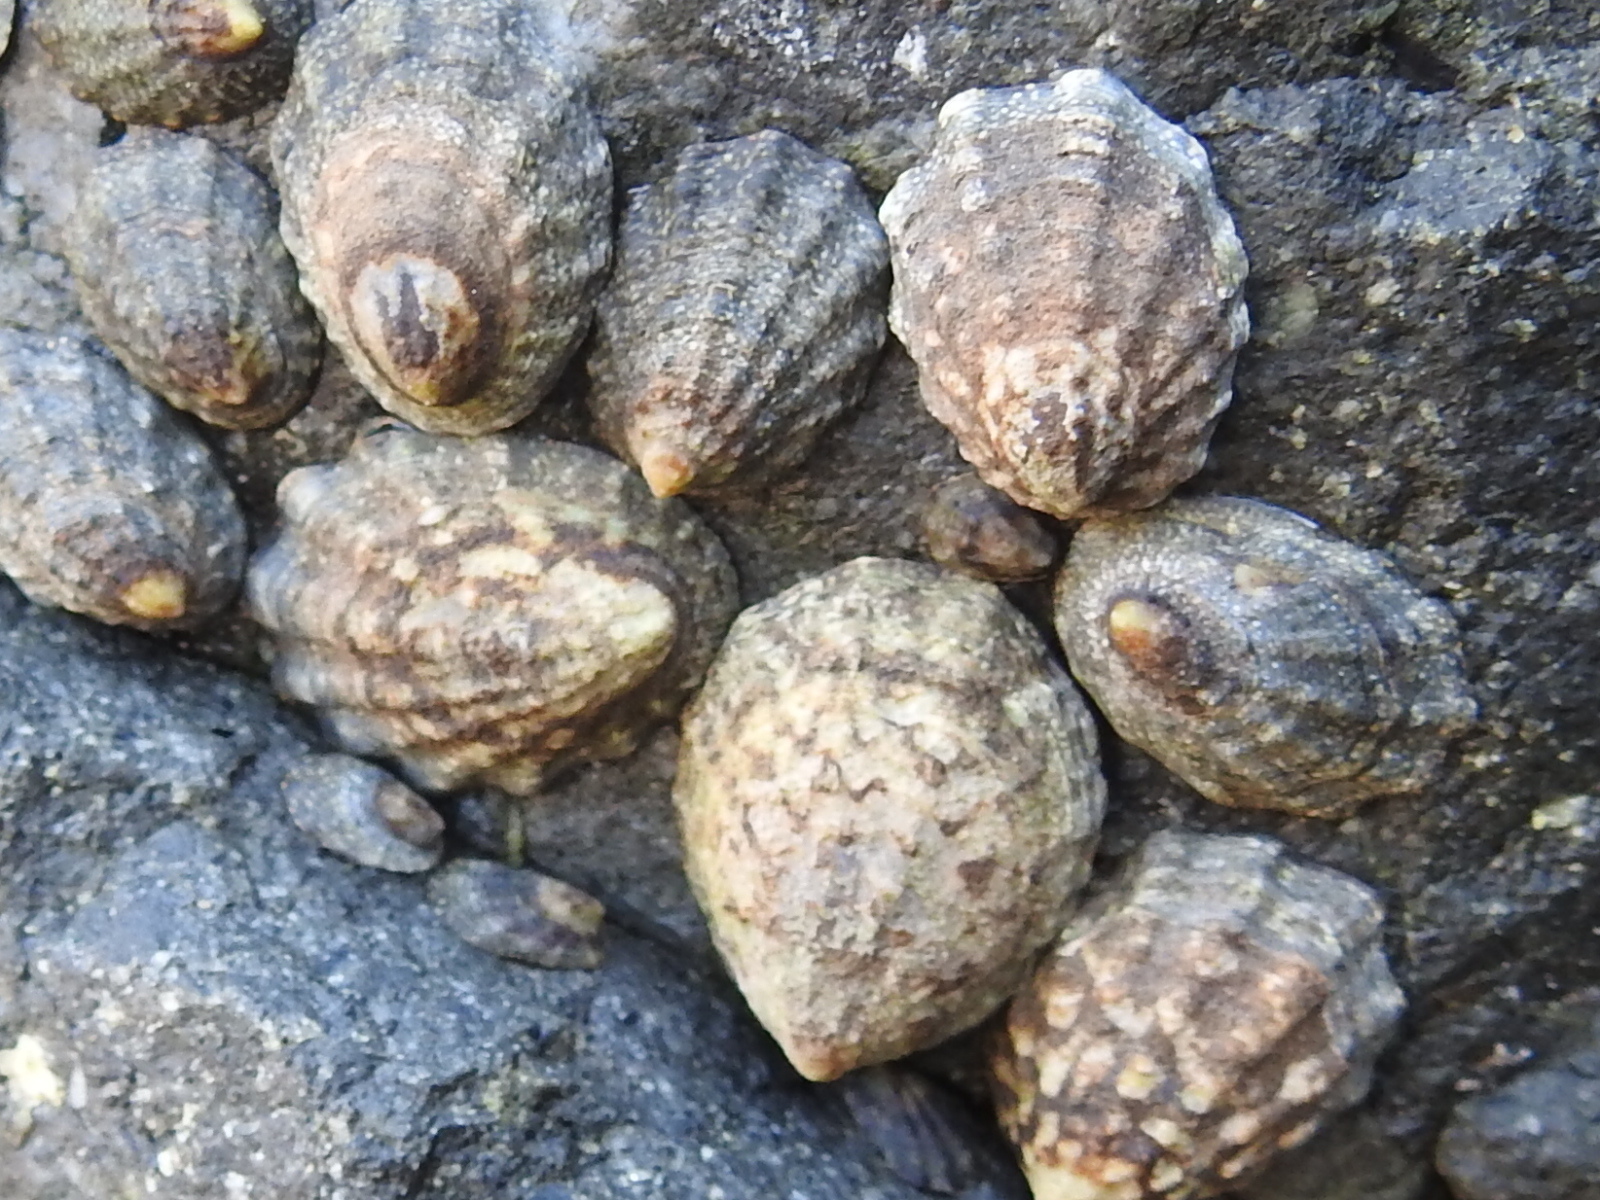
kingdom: Animalia
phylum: Mollusca
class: Gastropoda
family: Lottiidae
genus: Lottia
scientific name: Lottia digitalis
